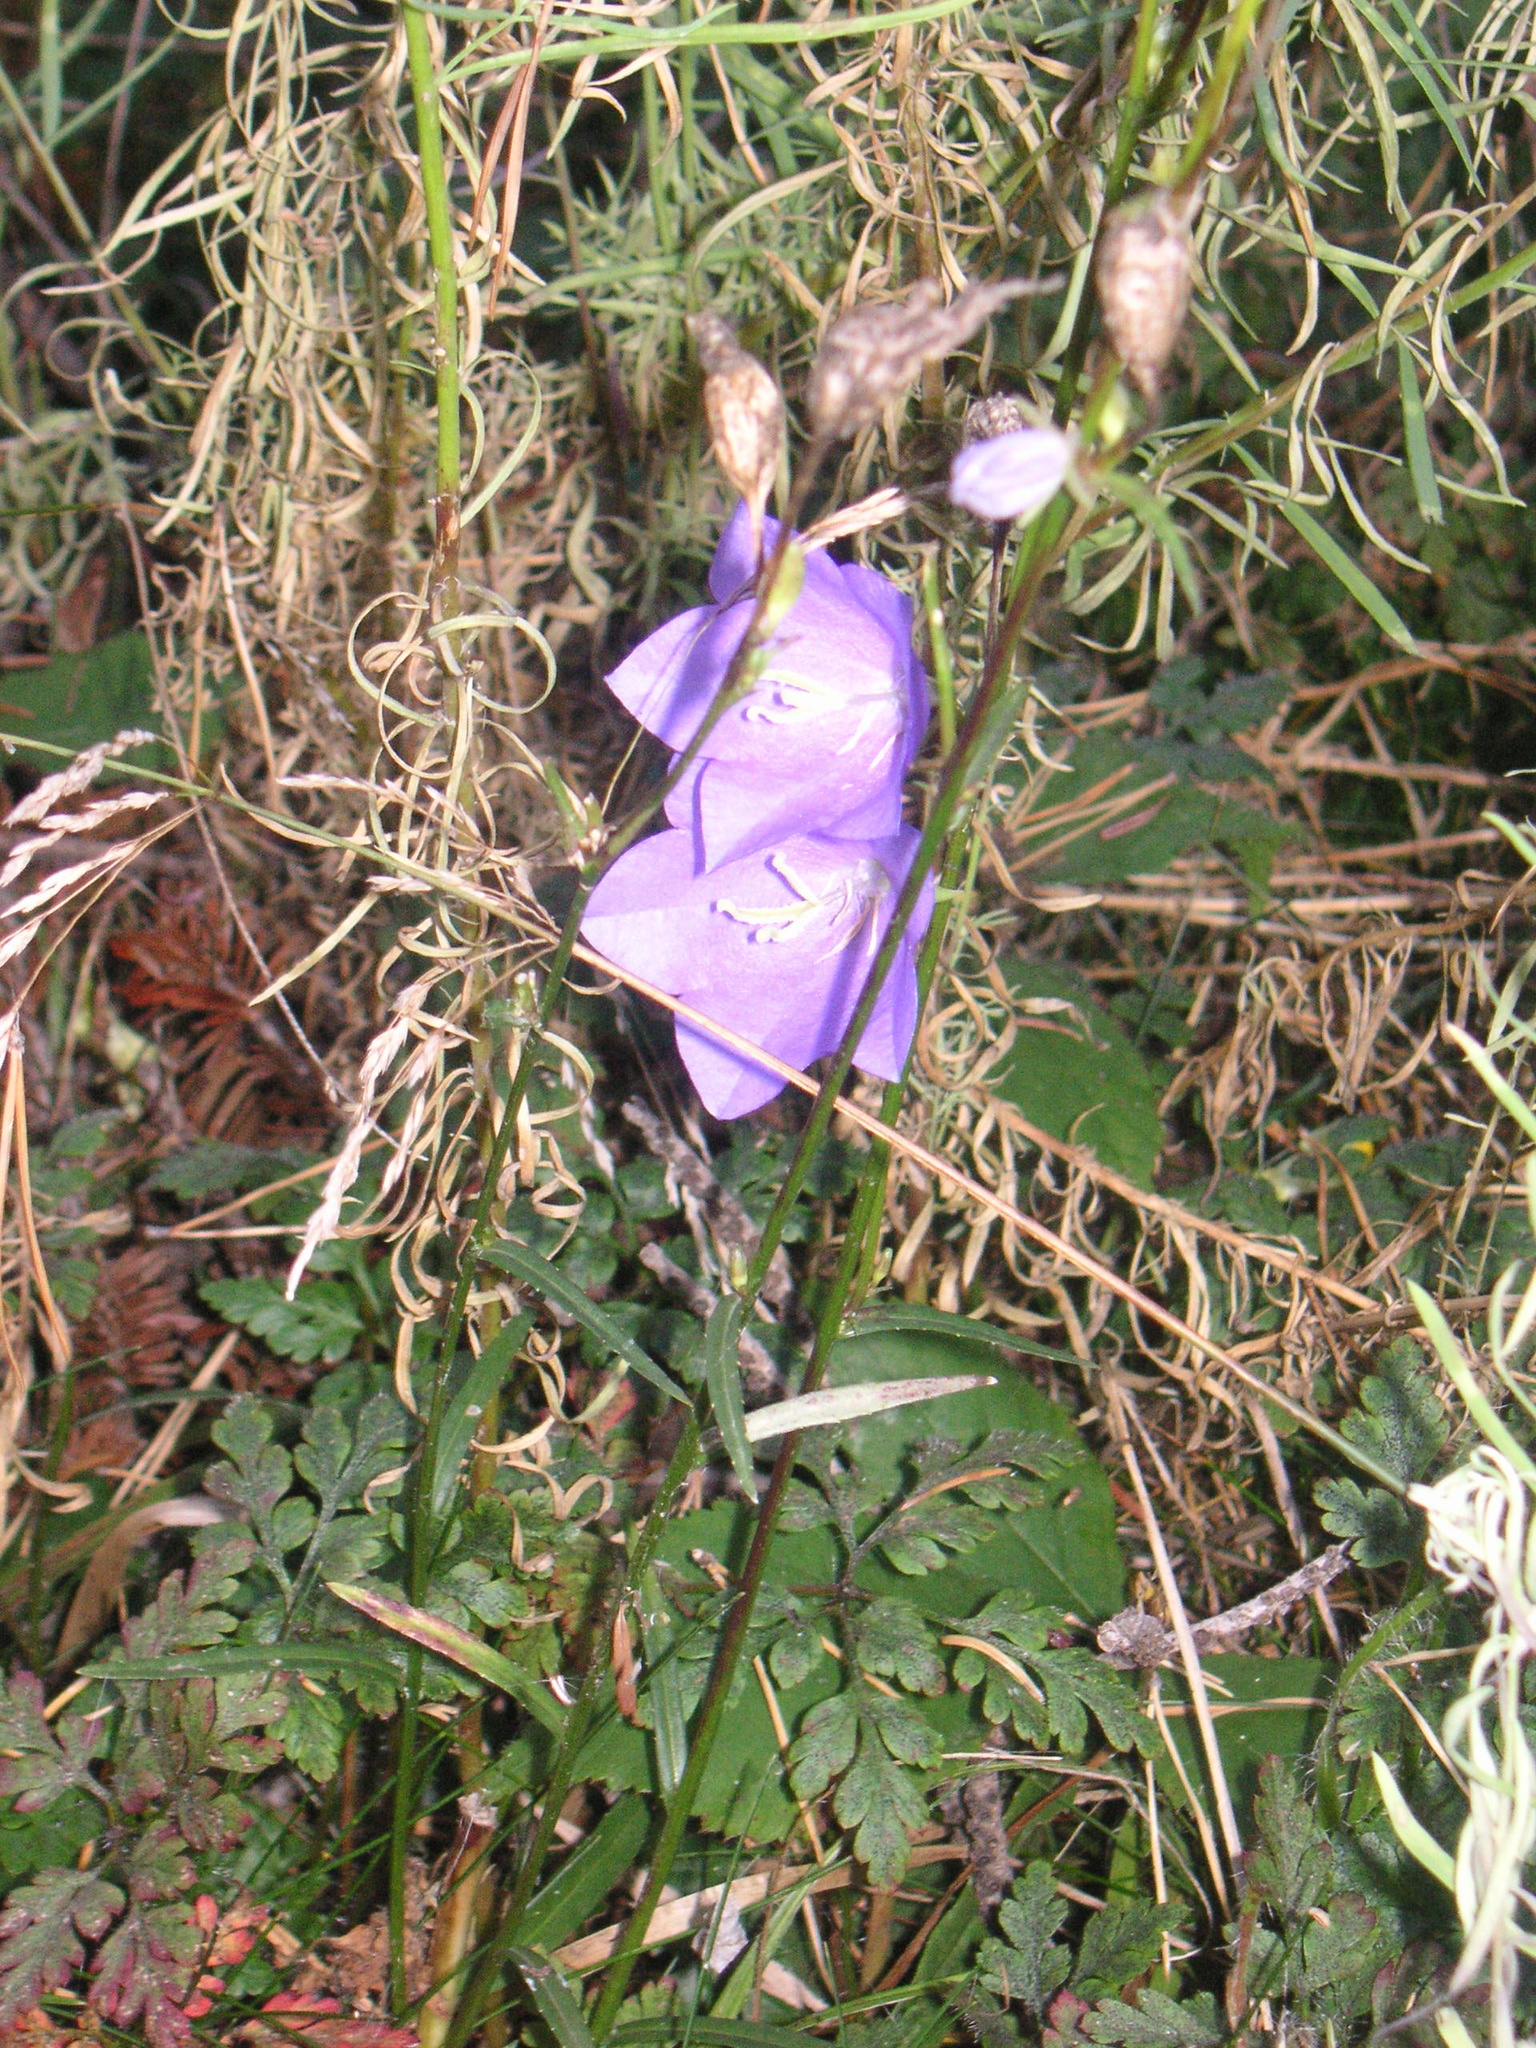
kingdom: Plantae
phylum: Tracheophyta
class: Magnoliopsida
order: Asterales
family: Campanulaceae
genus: Campanula
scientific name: Campanula persicifolia
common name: Peach-leaved bellflower
